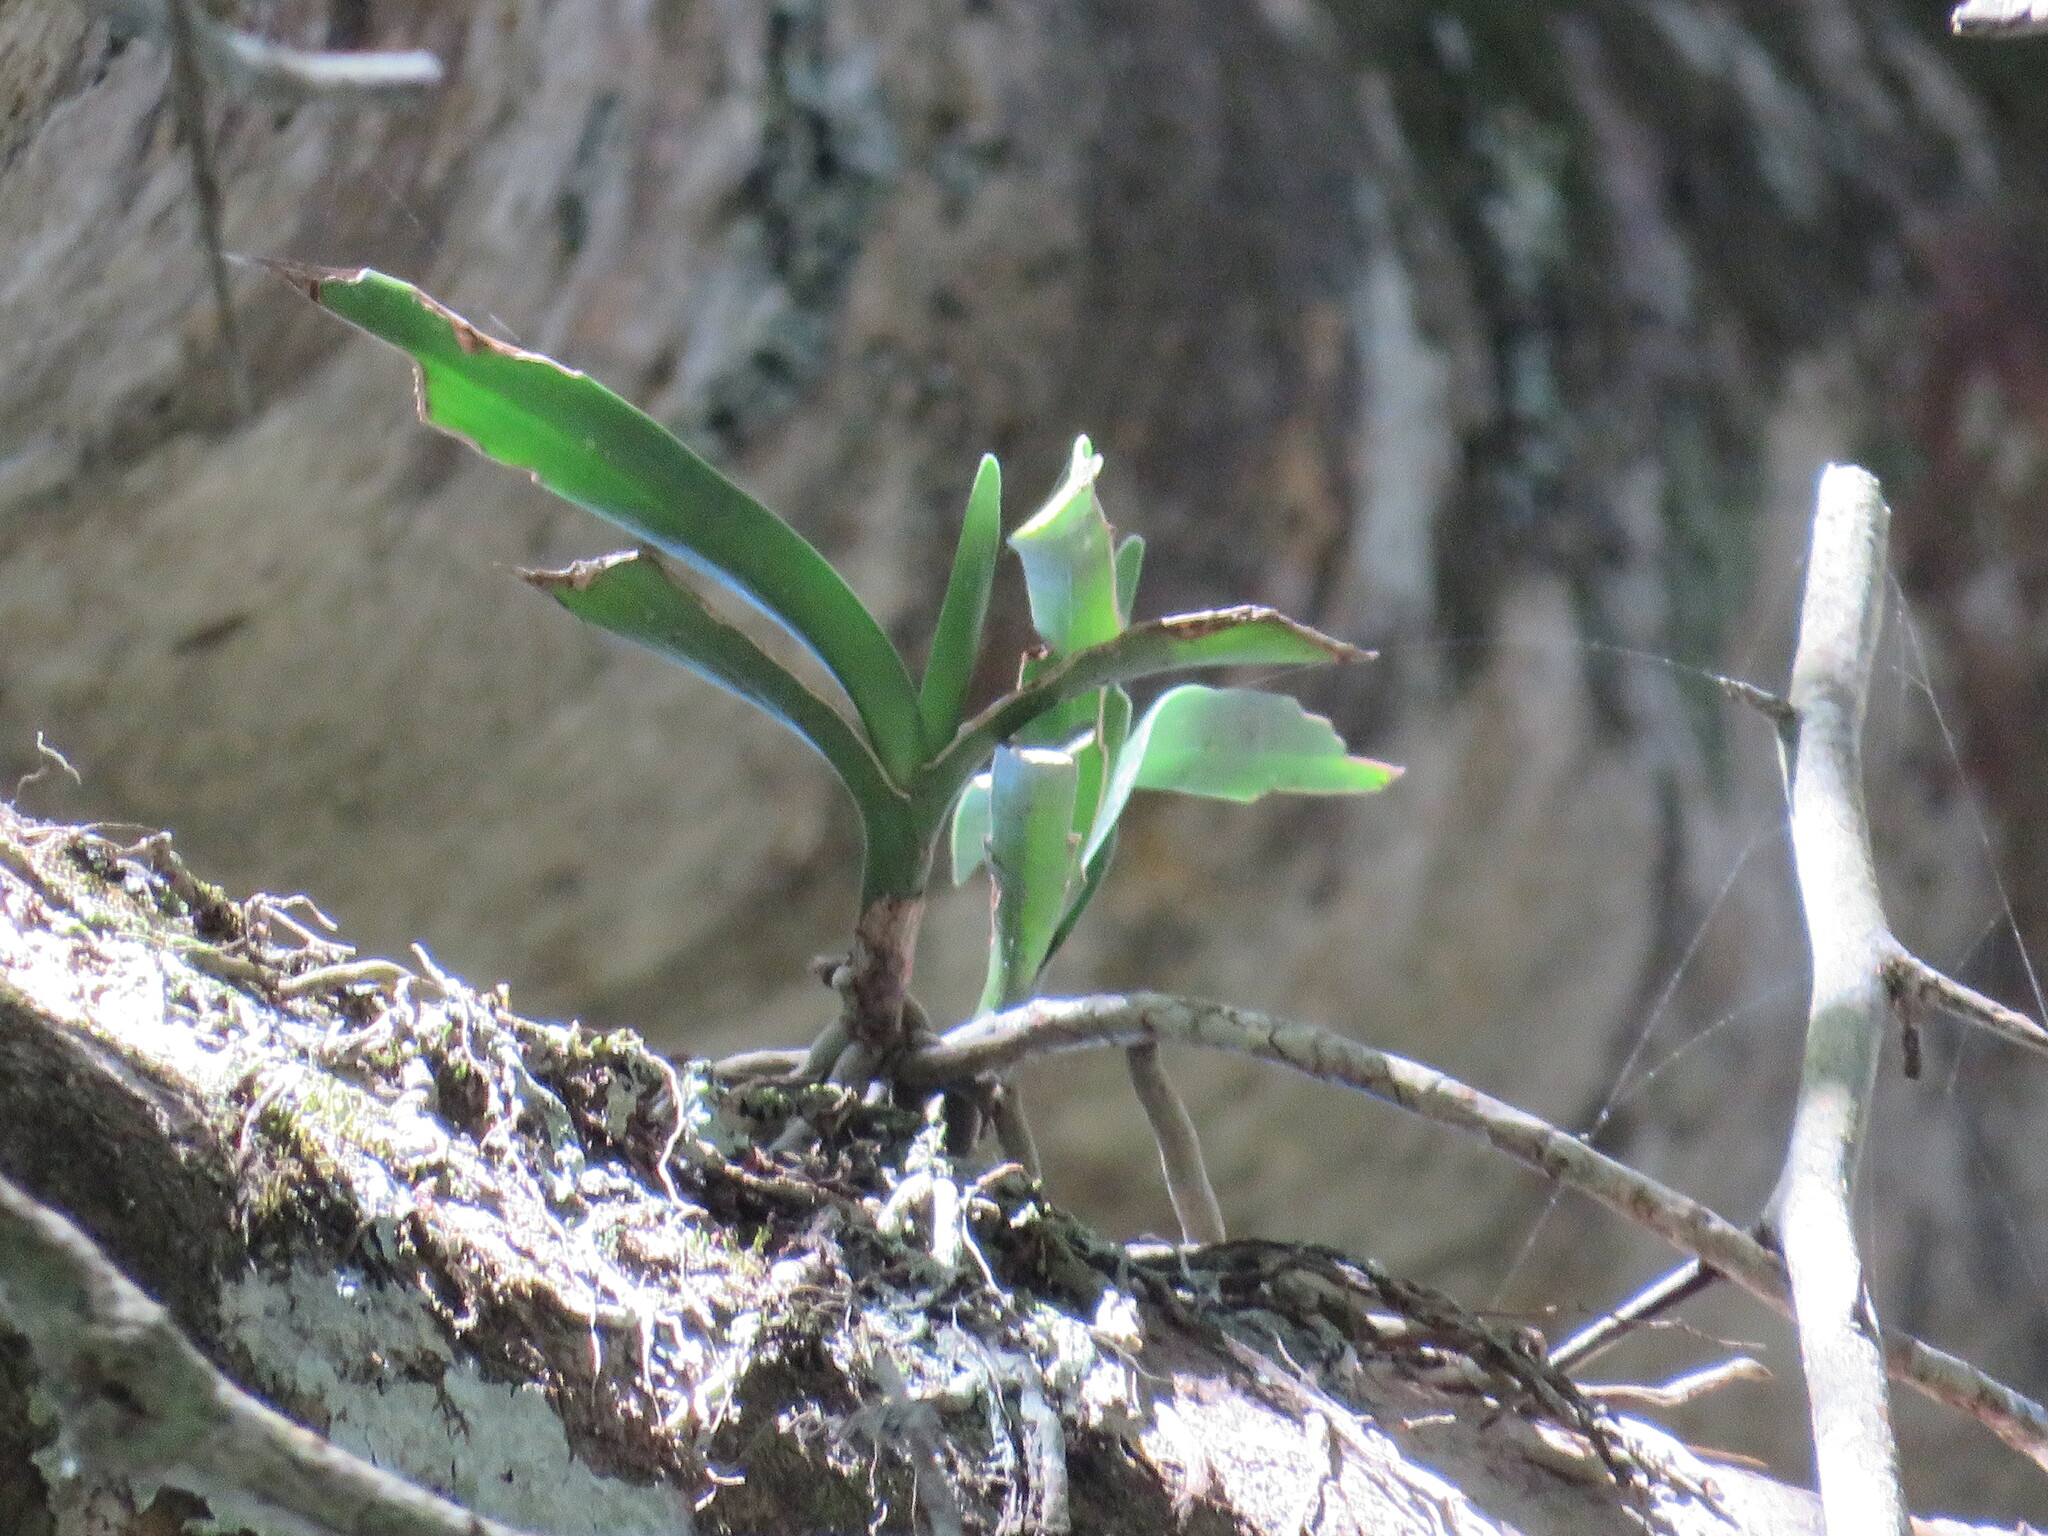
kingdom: Plantae
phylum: Tracheophyta
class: Liliopsida
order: Asparagales
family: Orchidaceae
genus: Tridactyle
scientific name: Tridactyle bicaudata
